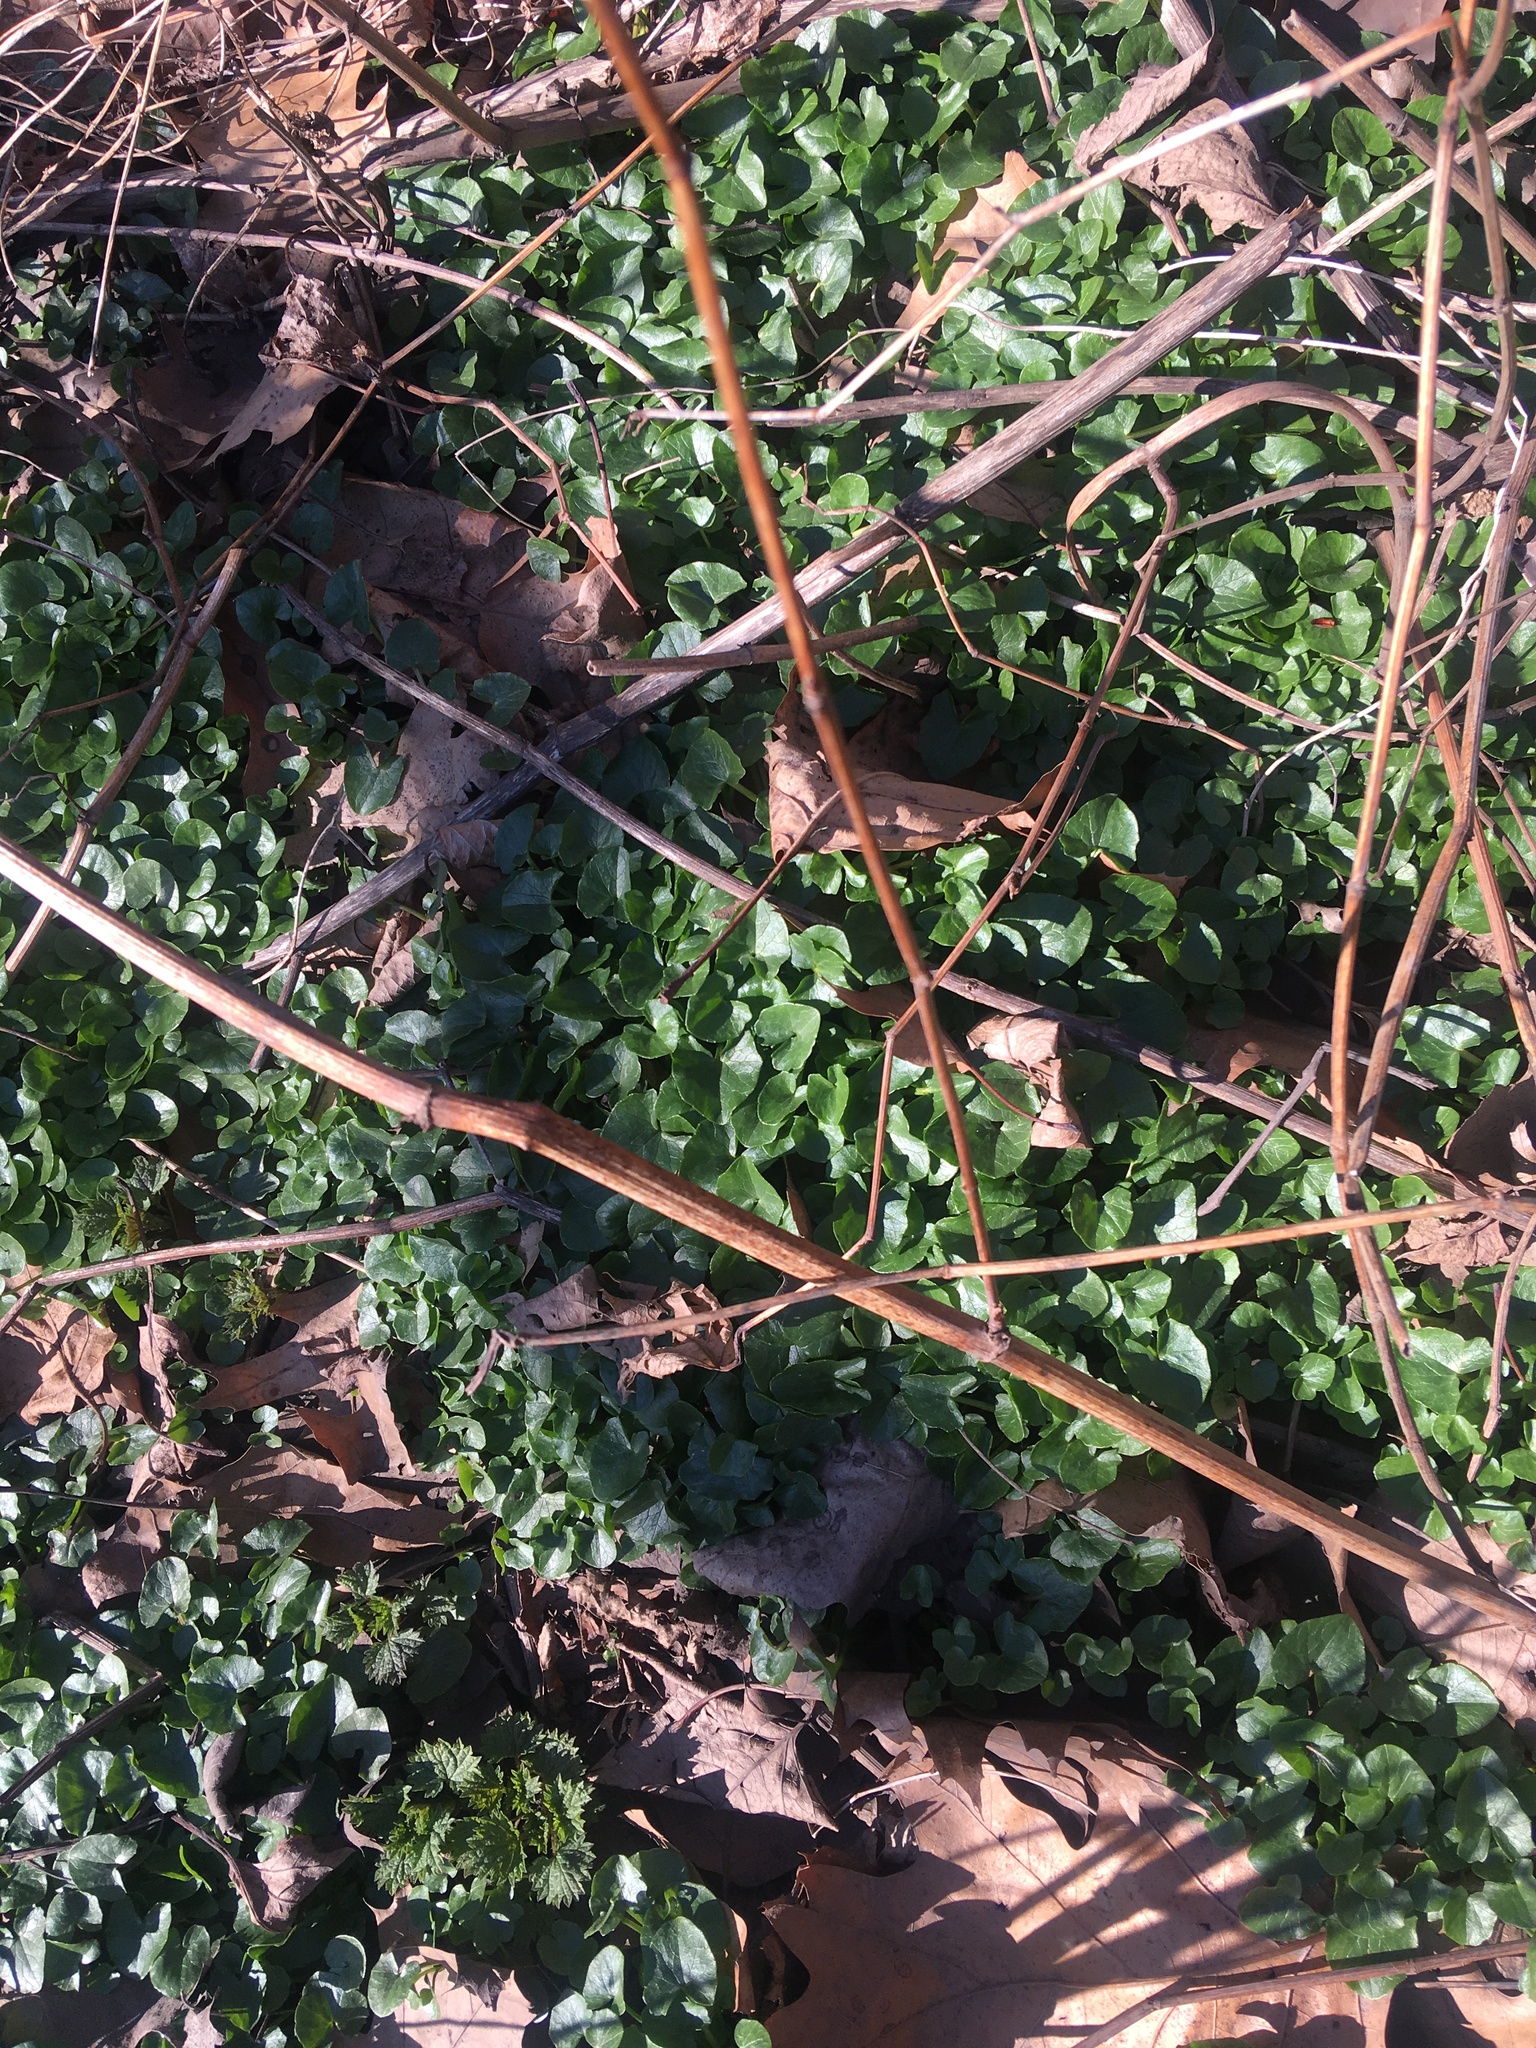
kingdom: Plantae
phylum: Tracheophyta
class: Magnoliopsida
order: Ranunculales
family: Ranunculaceae
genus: Ficaria
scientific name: Ficaria verna
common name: Lesser celandine
